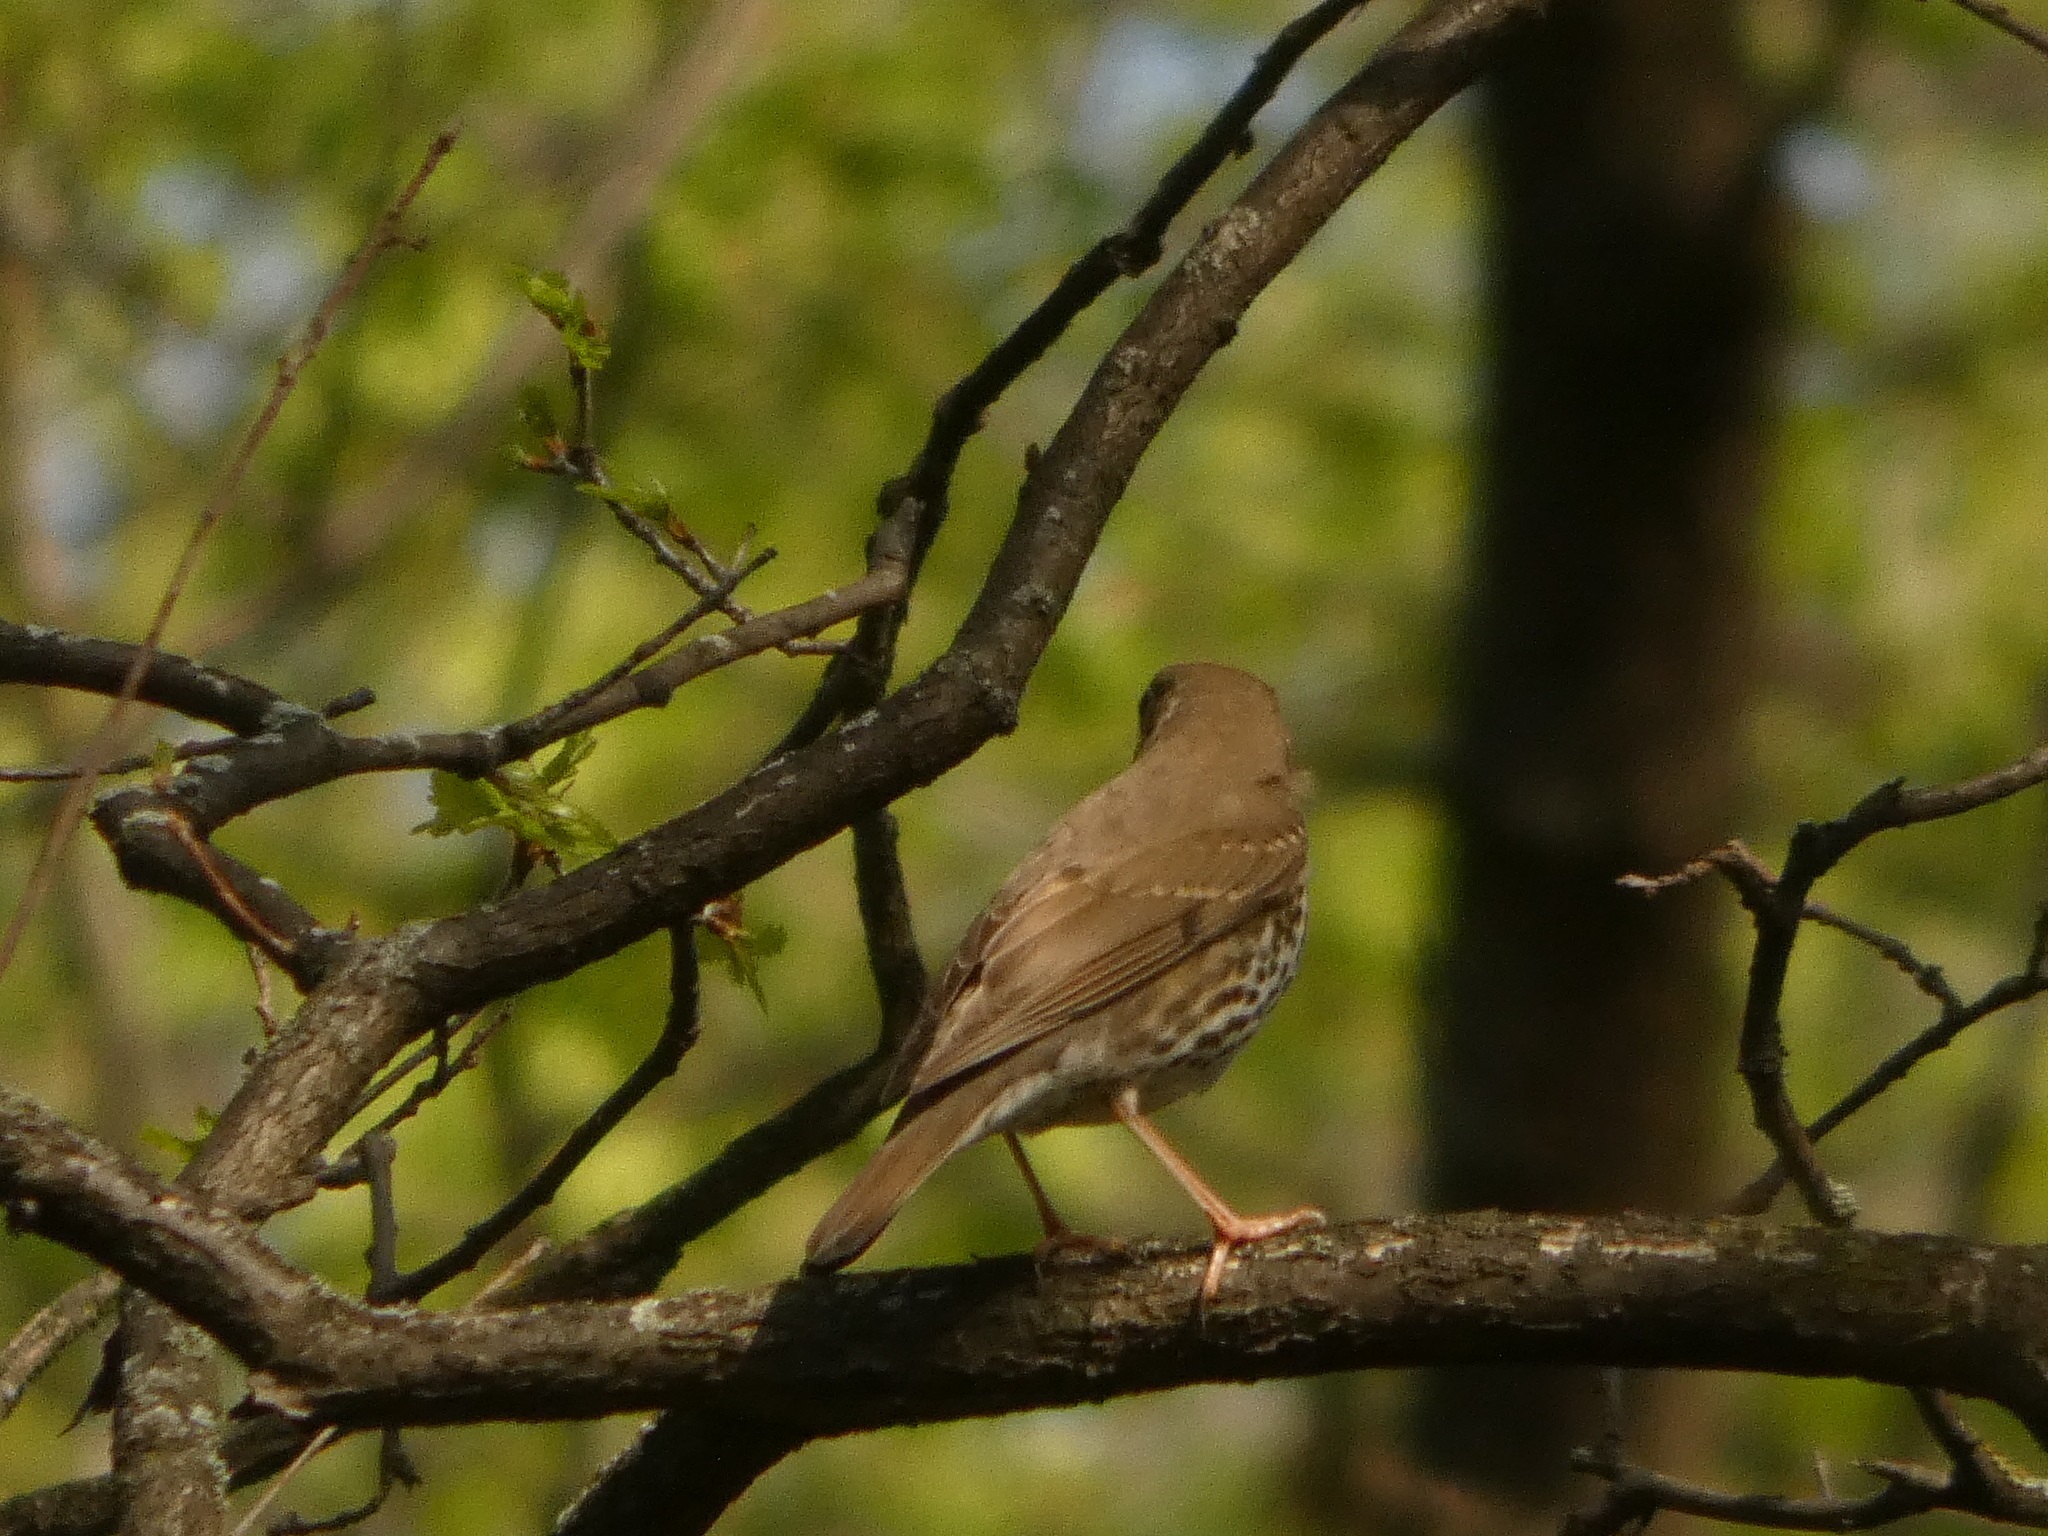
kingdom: Animalia
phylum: Chordata
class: Aves
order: Passeriformes
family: Turdidae
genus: Turdus
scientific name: Turdus philomelos
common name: Song thrush
